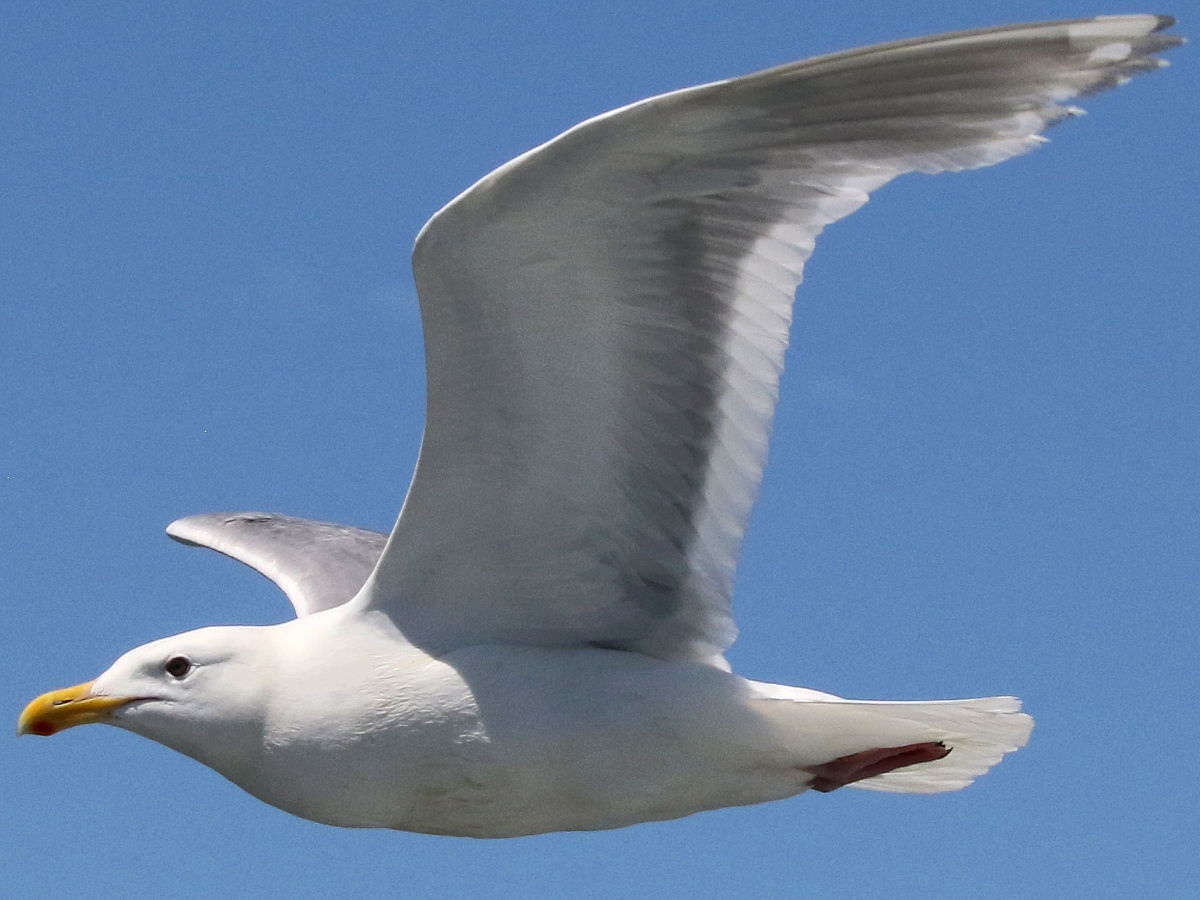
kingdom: Animalia
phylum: Chordata
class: Aves
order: Charadriiformes
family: Laridae
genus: Larus
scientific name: Larus glaucescens
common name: Glaucous-winged gull
